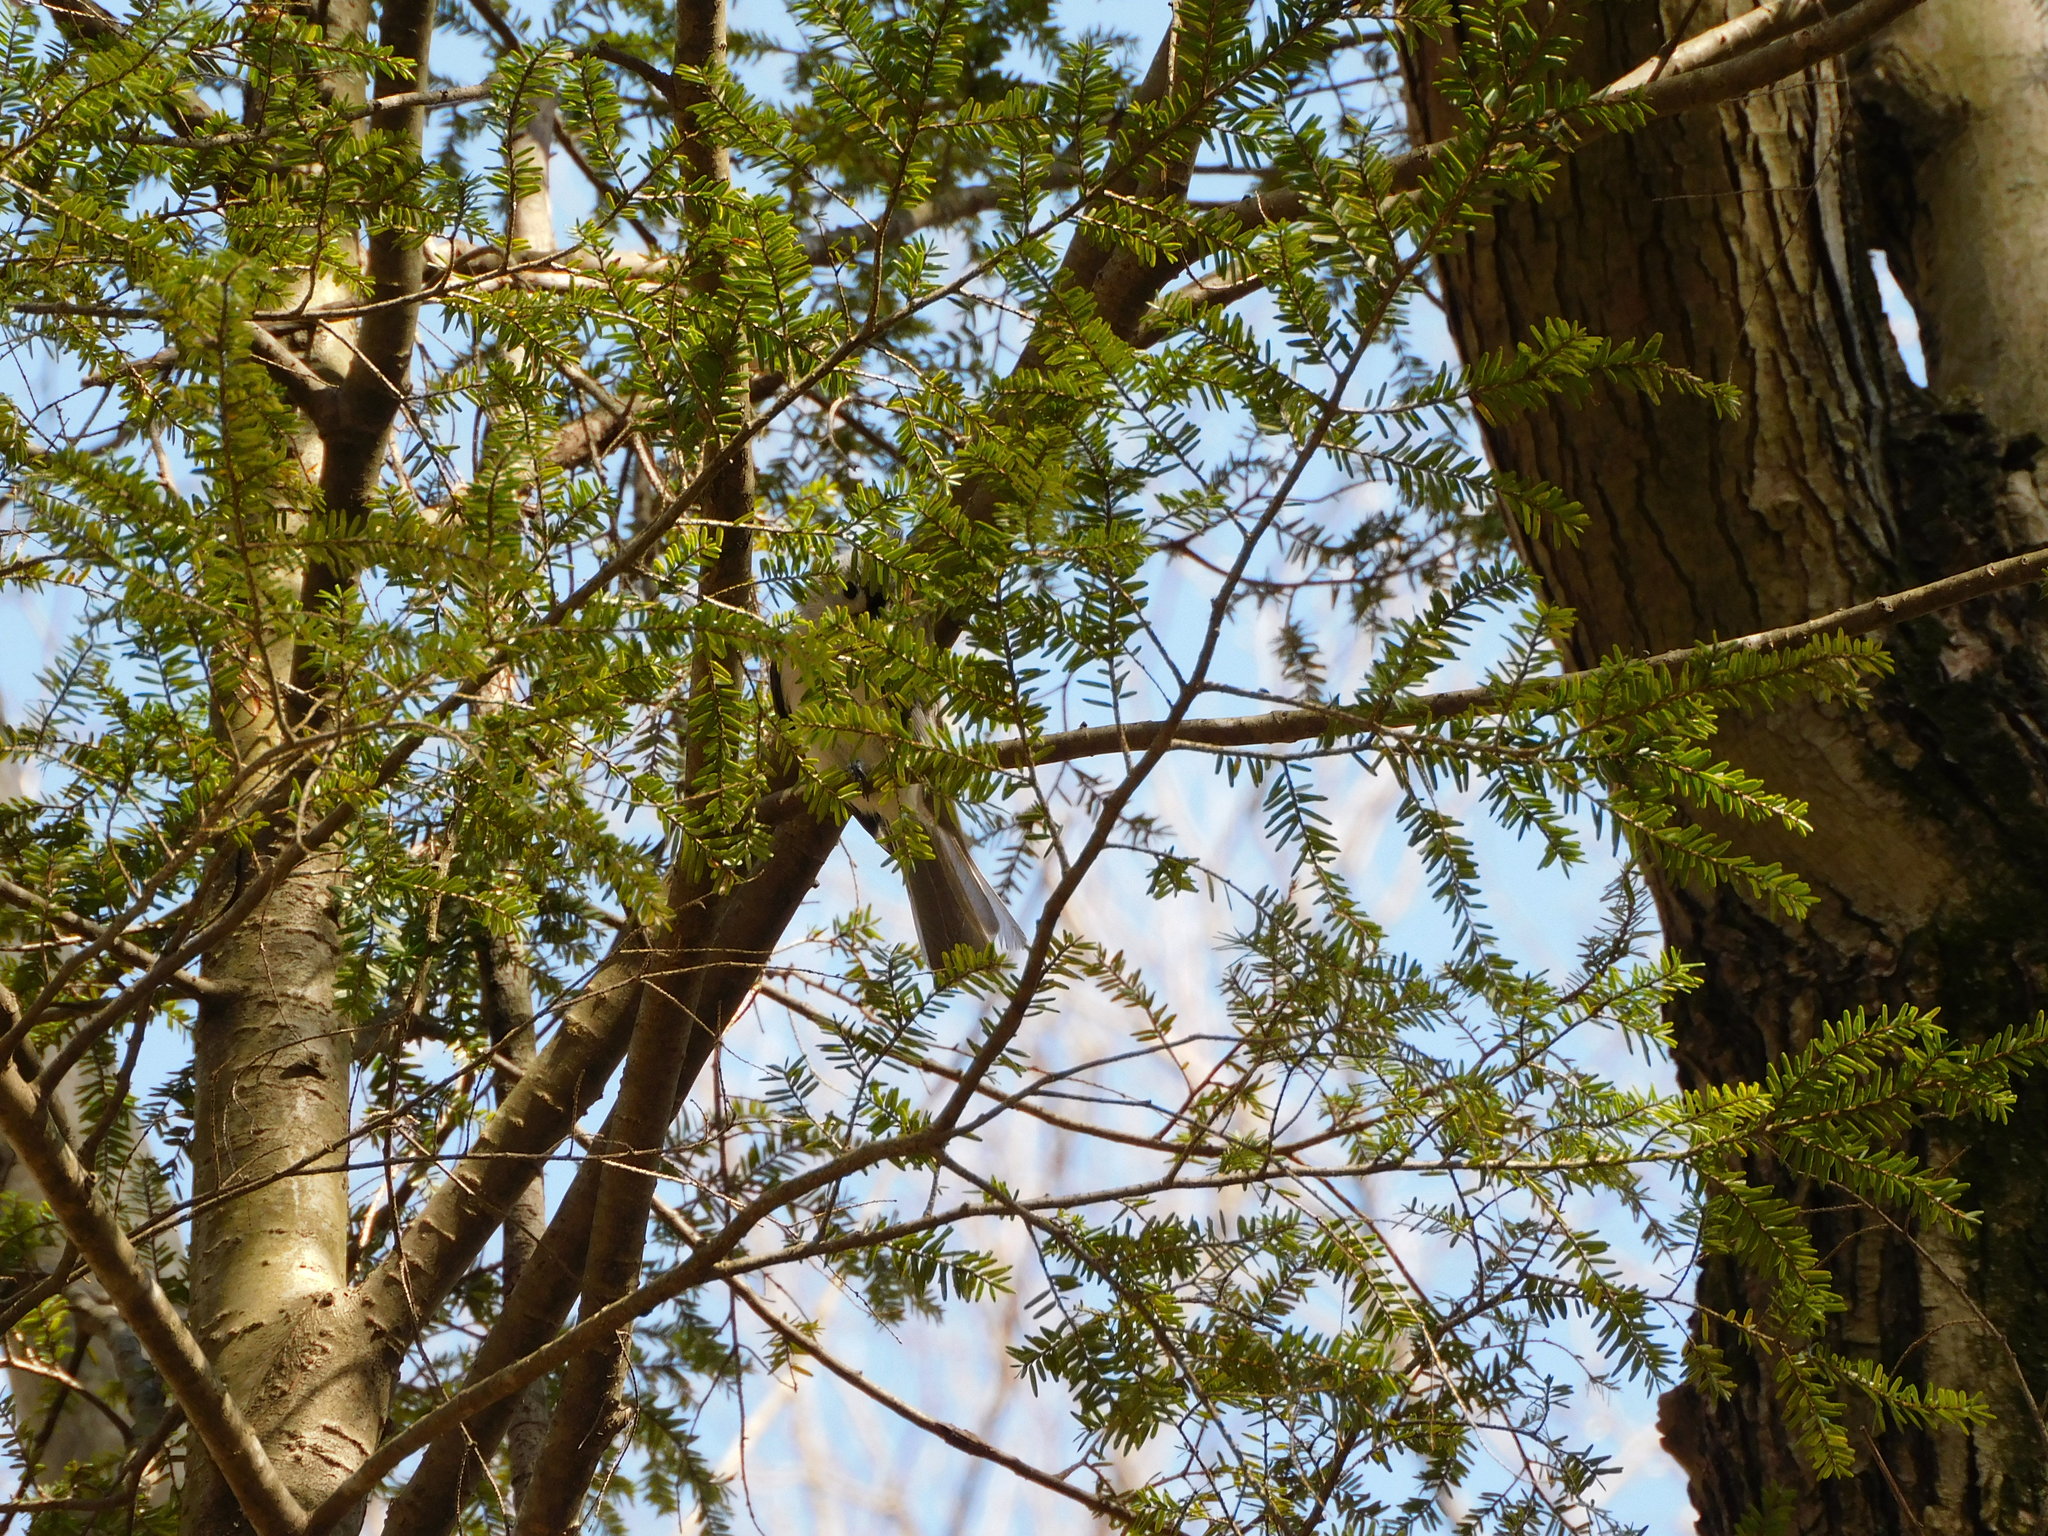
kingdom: Animalia
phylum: Chordata
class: Aves
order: Passeriformes
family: Paridae
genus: Baeolophus
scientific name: Baeolophus bicolor
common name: Tufted titmouse
